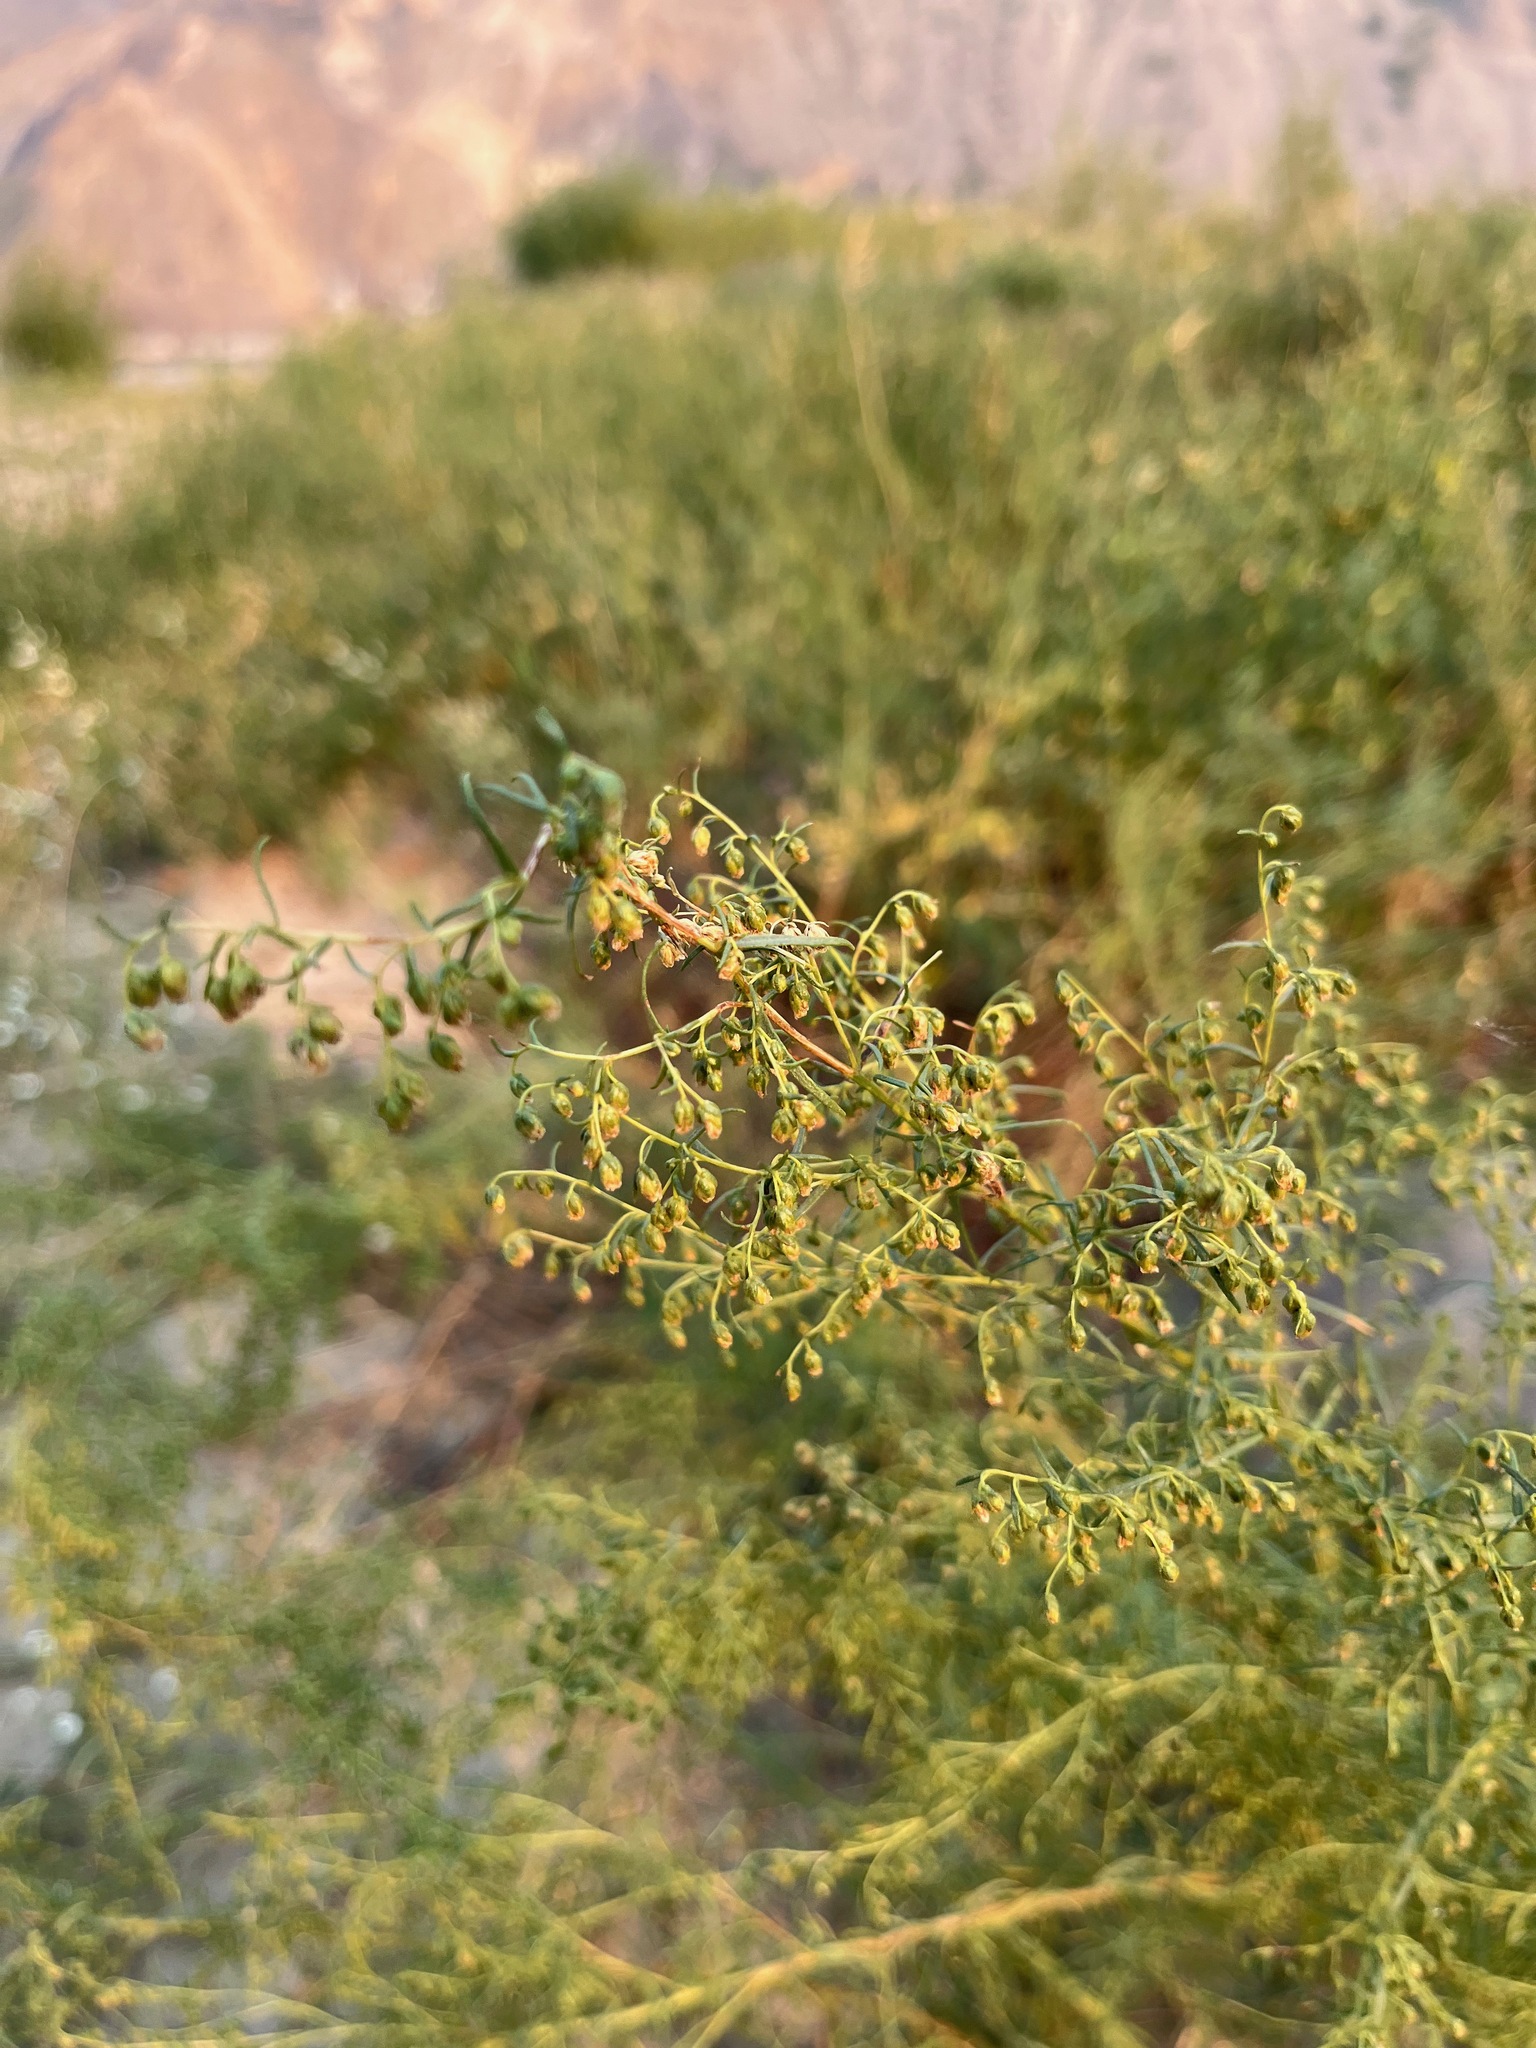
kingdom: Plantae
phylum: Tracheophyta
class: Magnoliopsida
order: Asterales
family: Asteraceae
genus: Artemisia
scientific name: Artemisia dracunculus
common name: Tarragon
